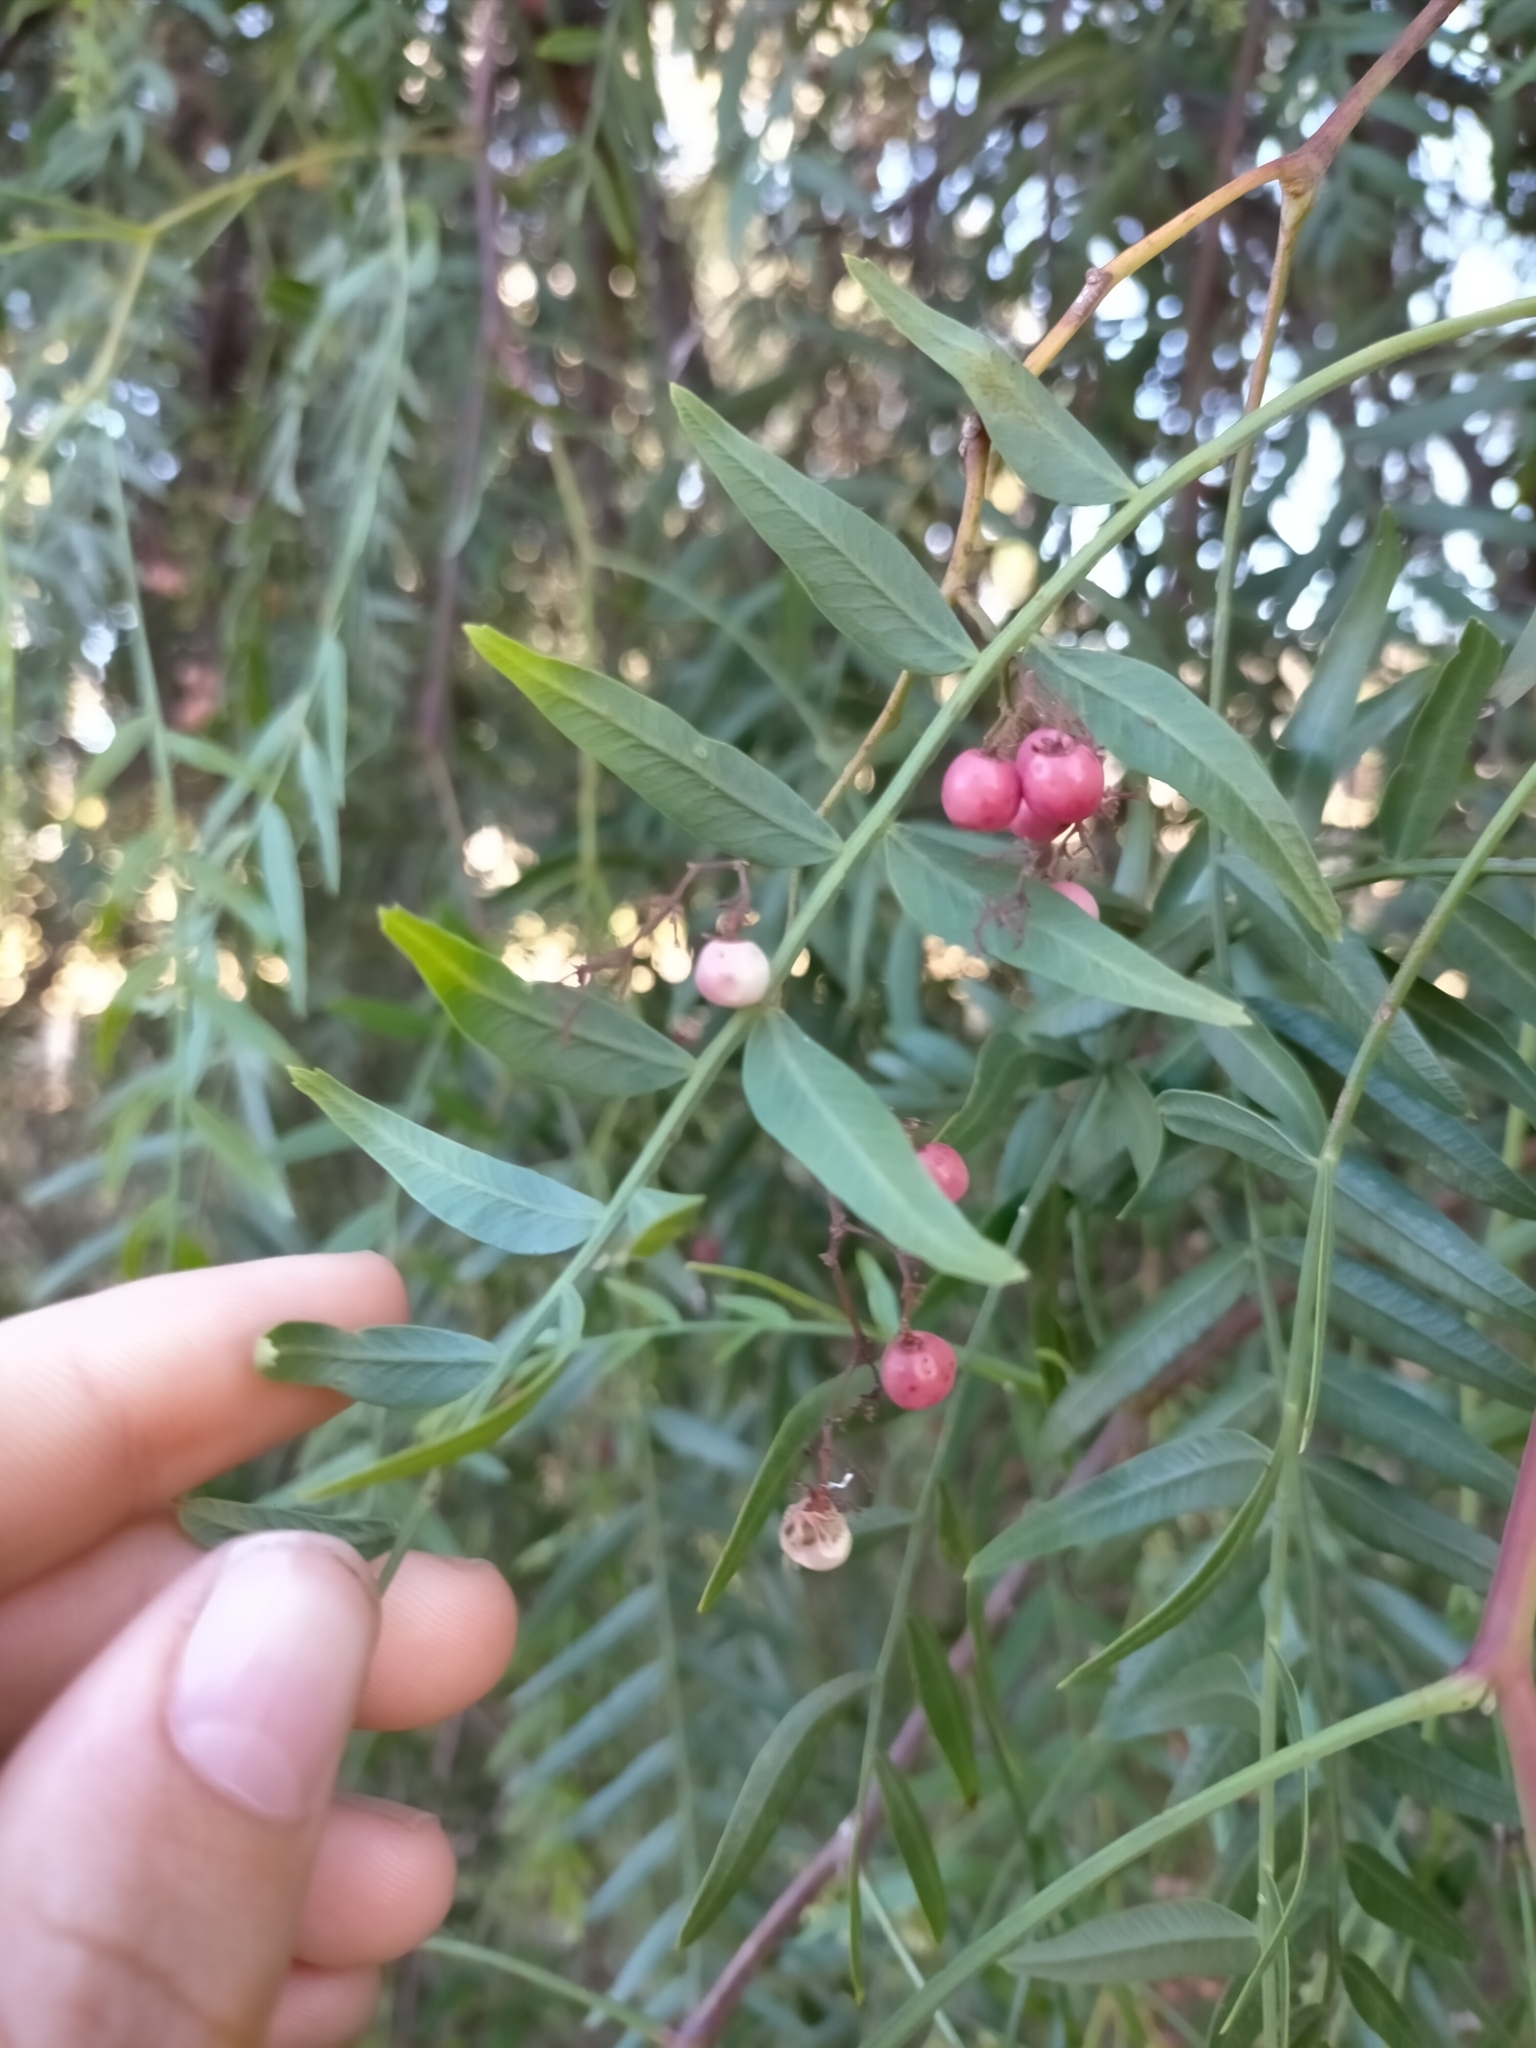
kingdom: Plantae
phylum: Tracheophyta
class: Magnoliopsida
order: Sapindales
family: Anacardiaceae
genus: Schinus
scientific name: Schinus molle
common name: Peruvian peppertree
